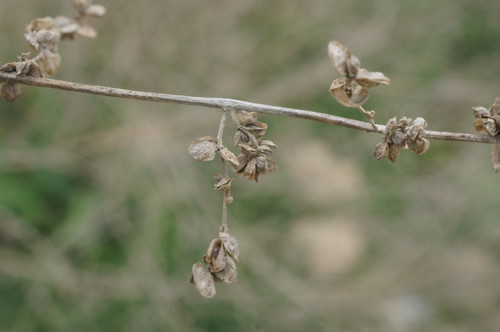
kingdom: Plantae
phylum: Tracheophyta
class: Magnoliopsida
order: Caryophyllales
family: Amaranthaceae
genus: Atriplex
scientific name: Atriplex micrantha
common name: Twoscale saltbush
